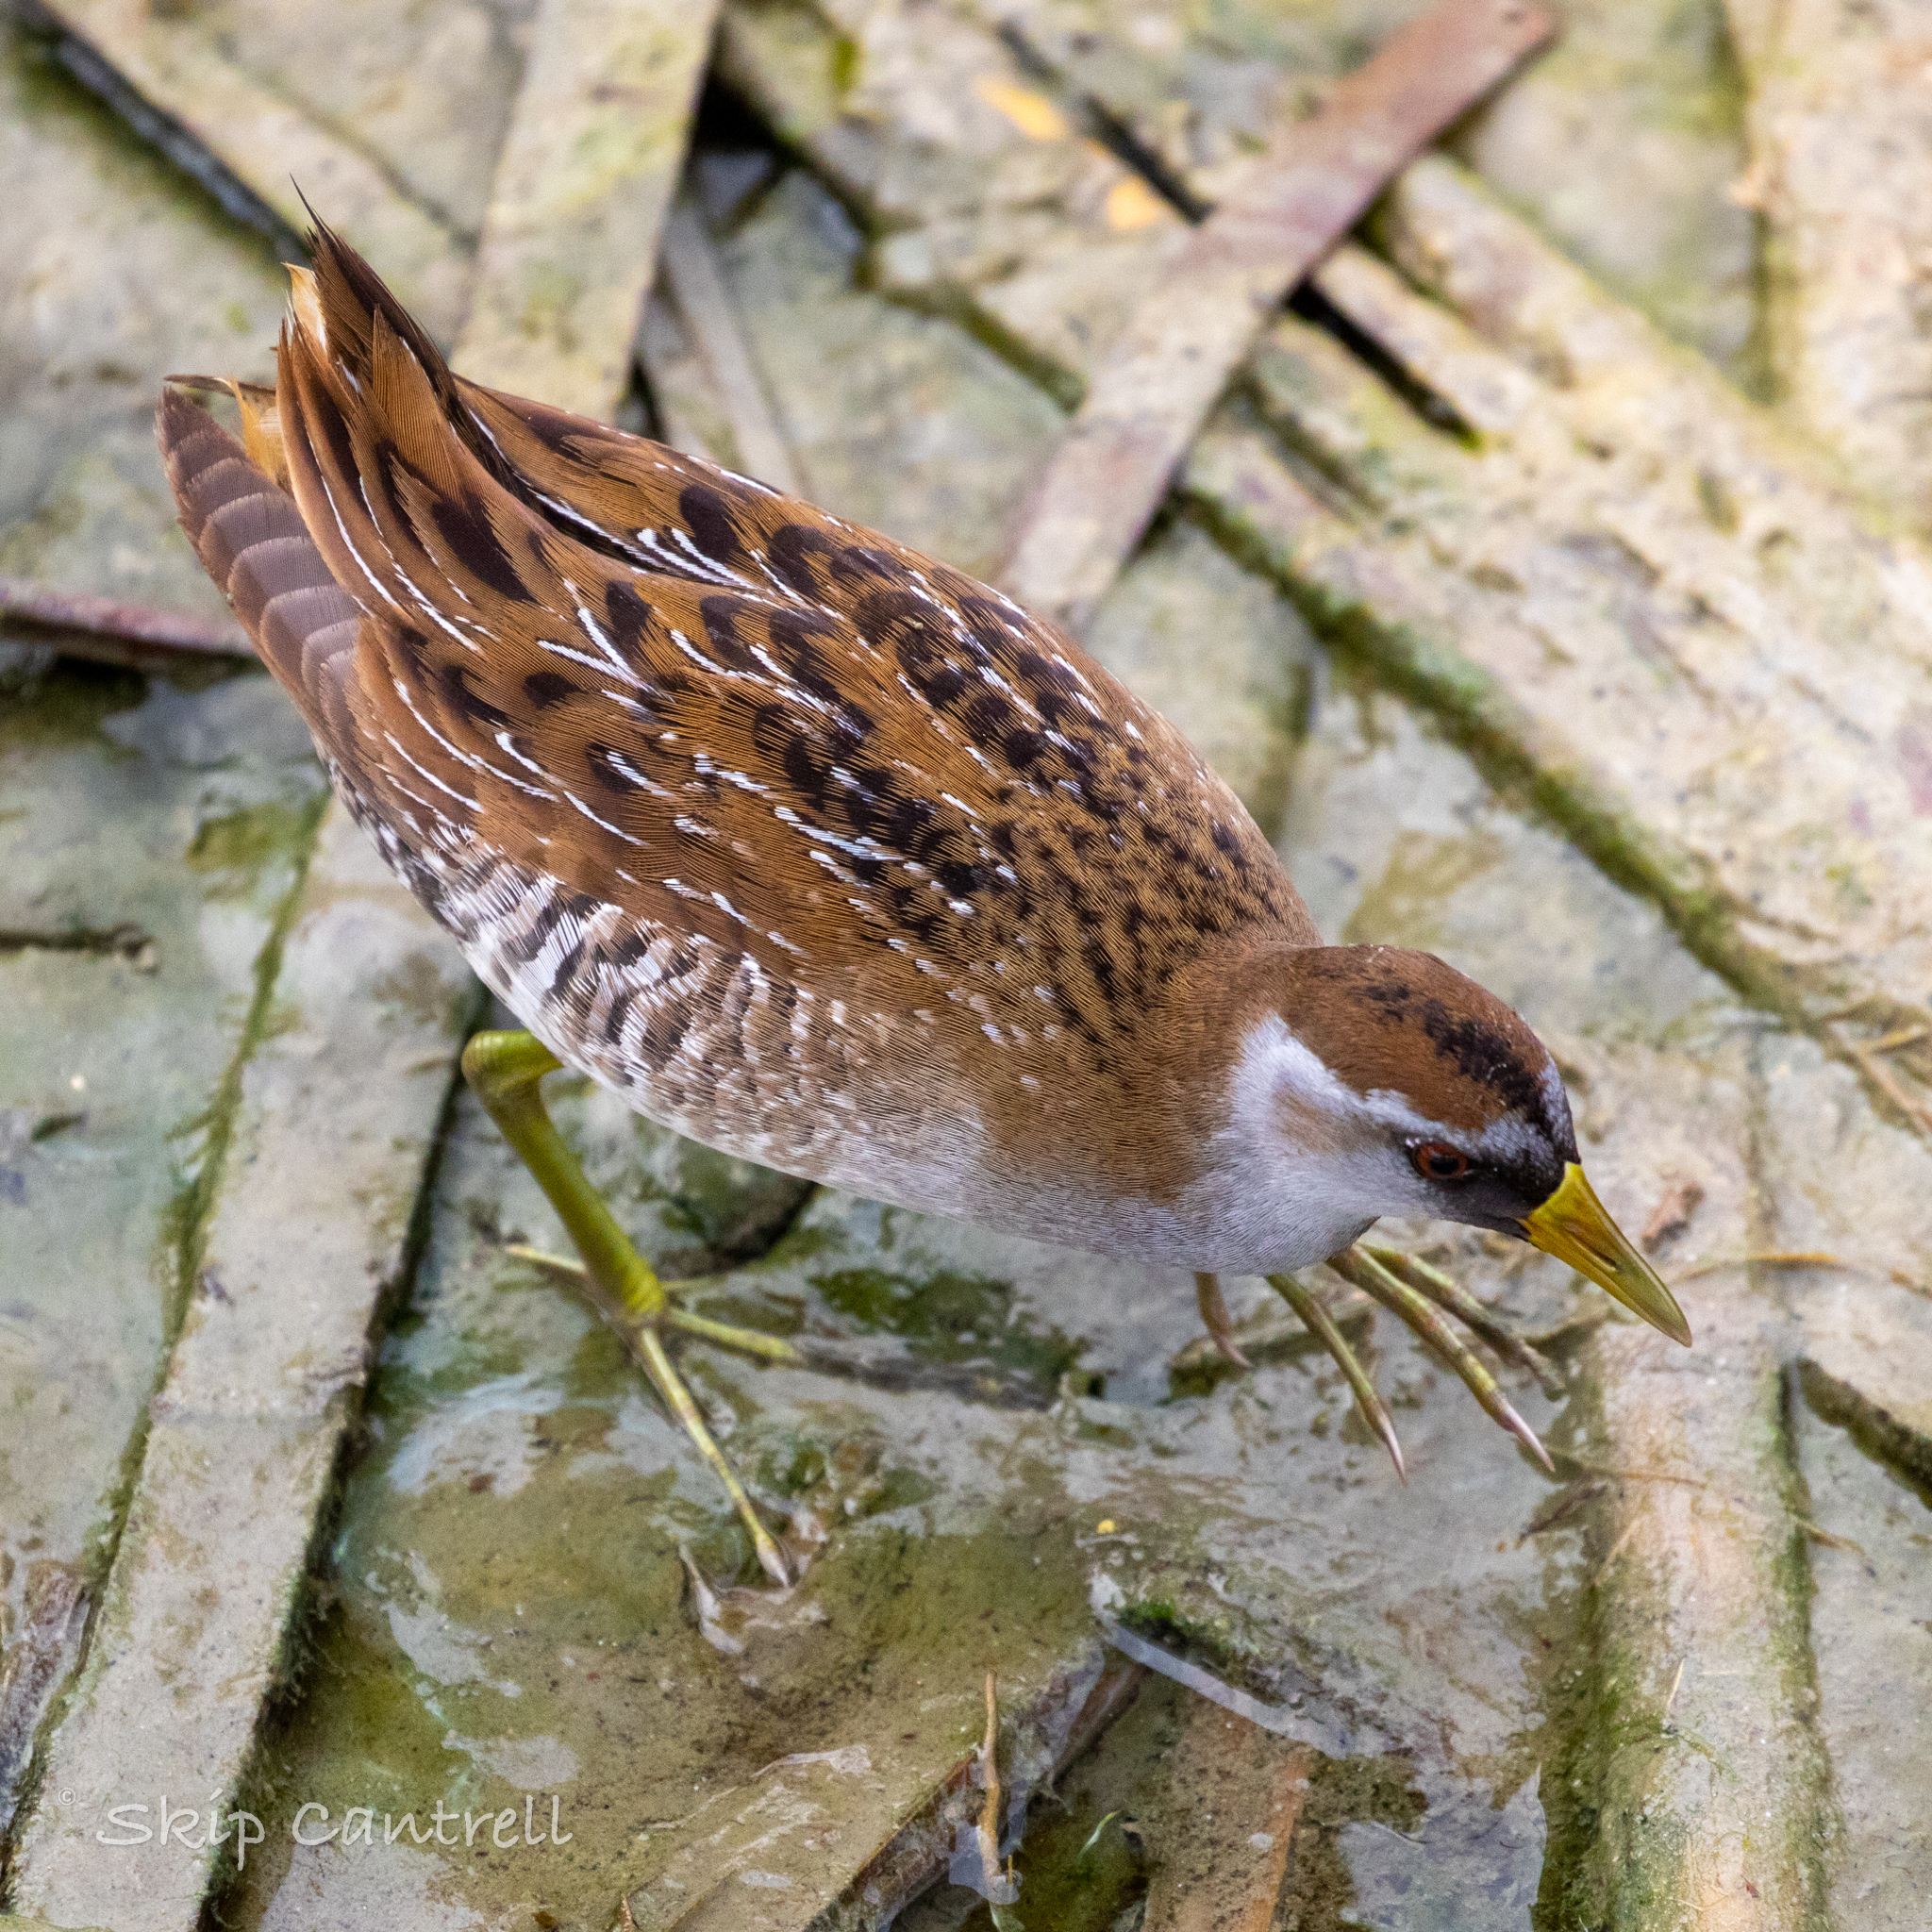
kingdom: Animalia
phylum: Chordata
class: Aves
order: Gruiformes
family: Rallidae
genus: Porzana
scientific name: Porzana carolina
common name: Sora
